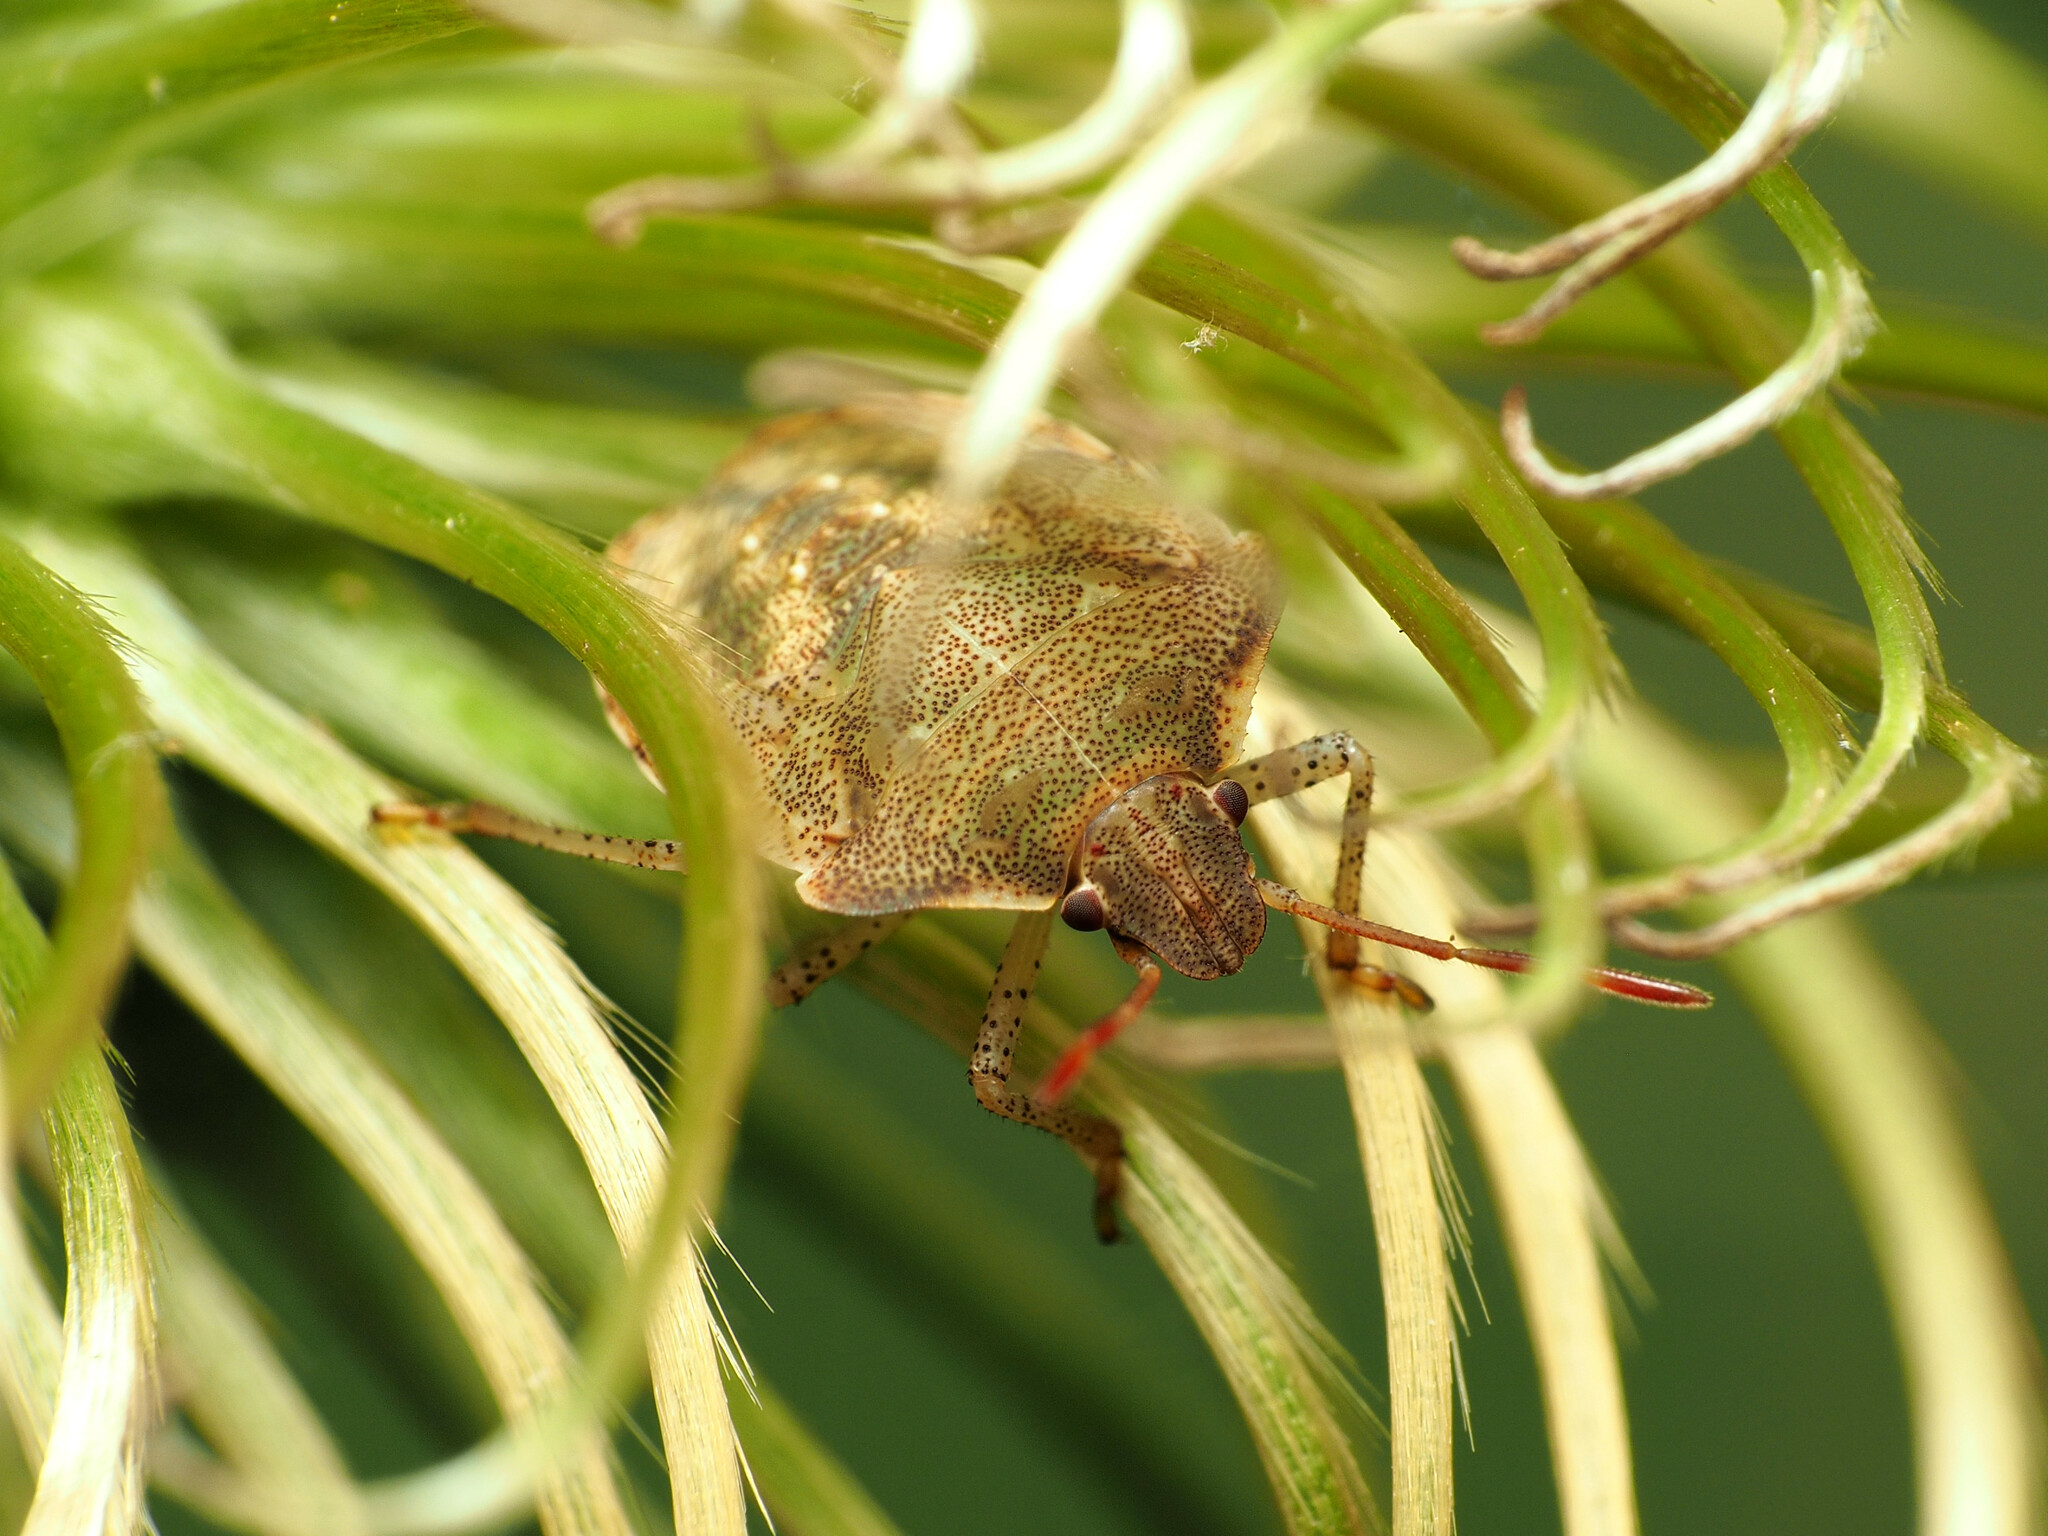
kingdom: Animalia
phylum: Arthropoda
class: Insecta
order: Hemiptera
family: Pentatomidae
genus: Euschistus
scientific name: Euschistus
